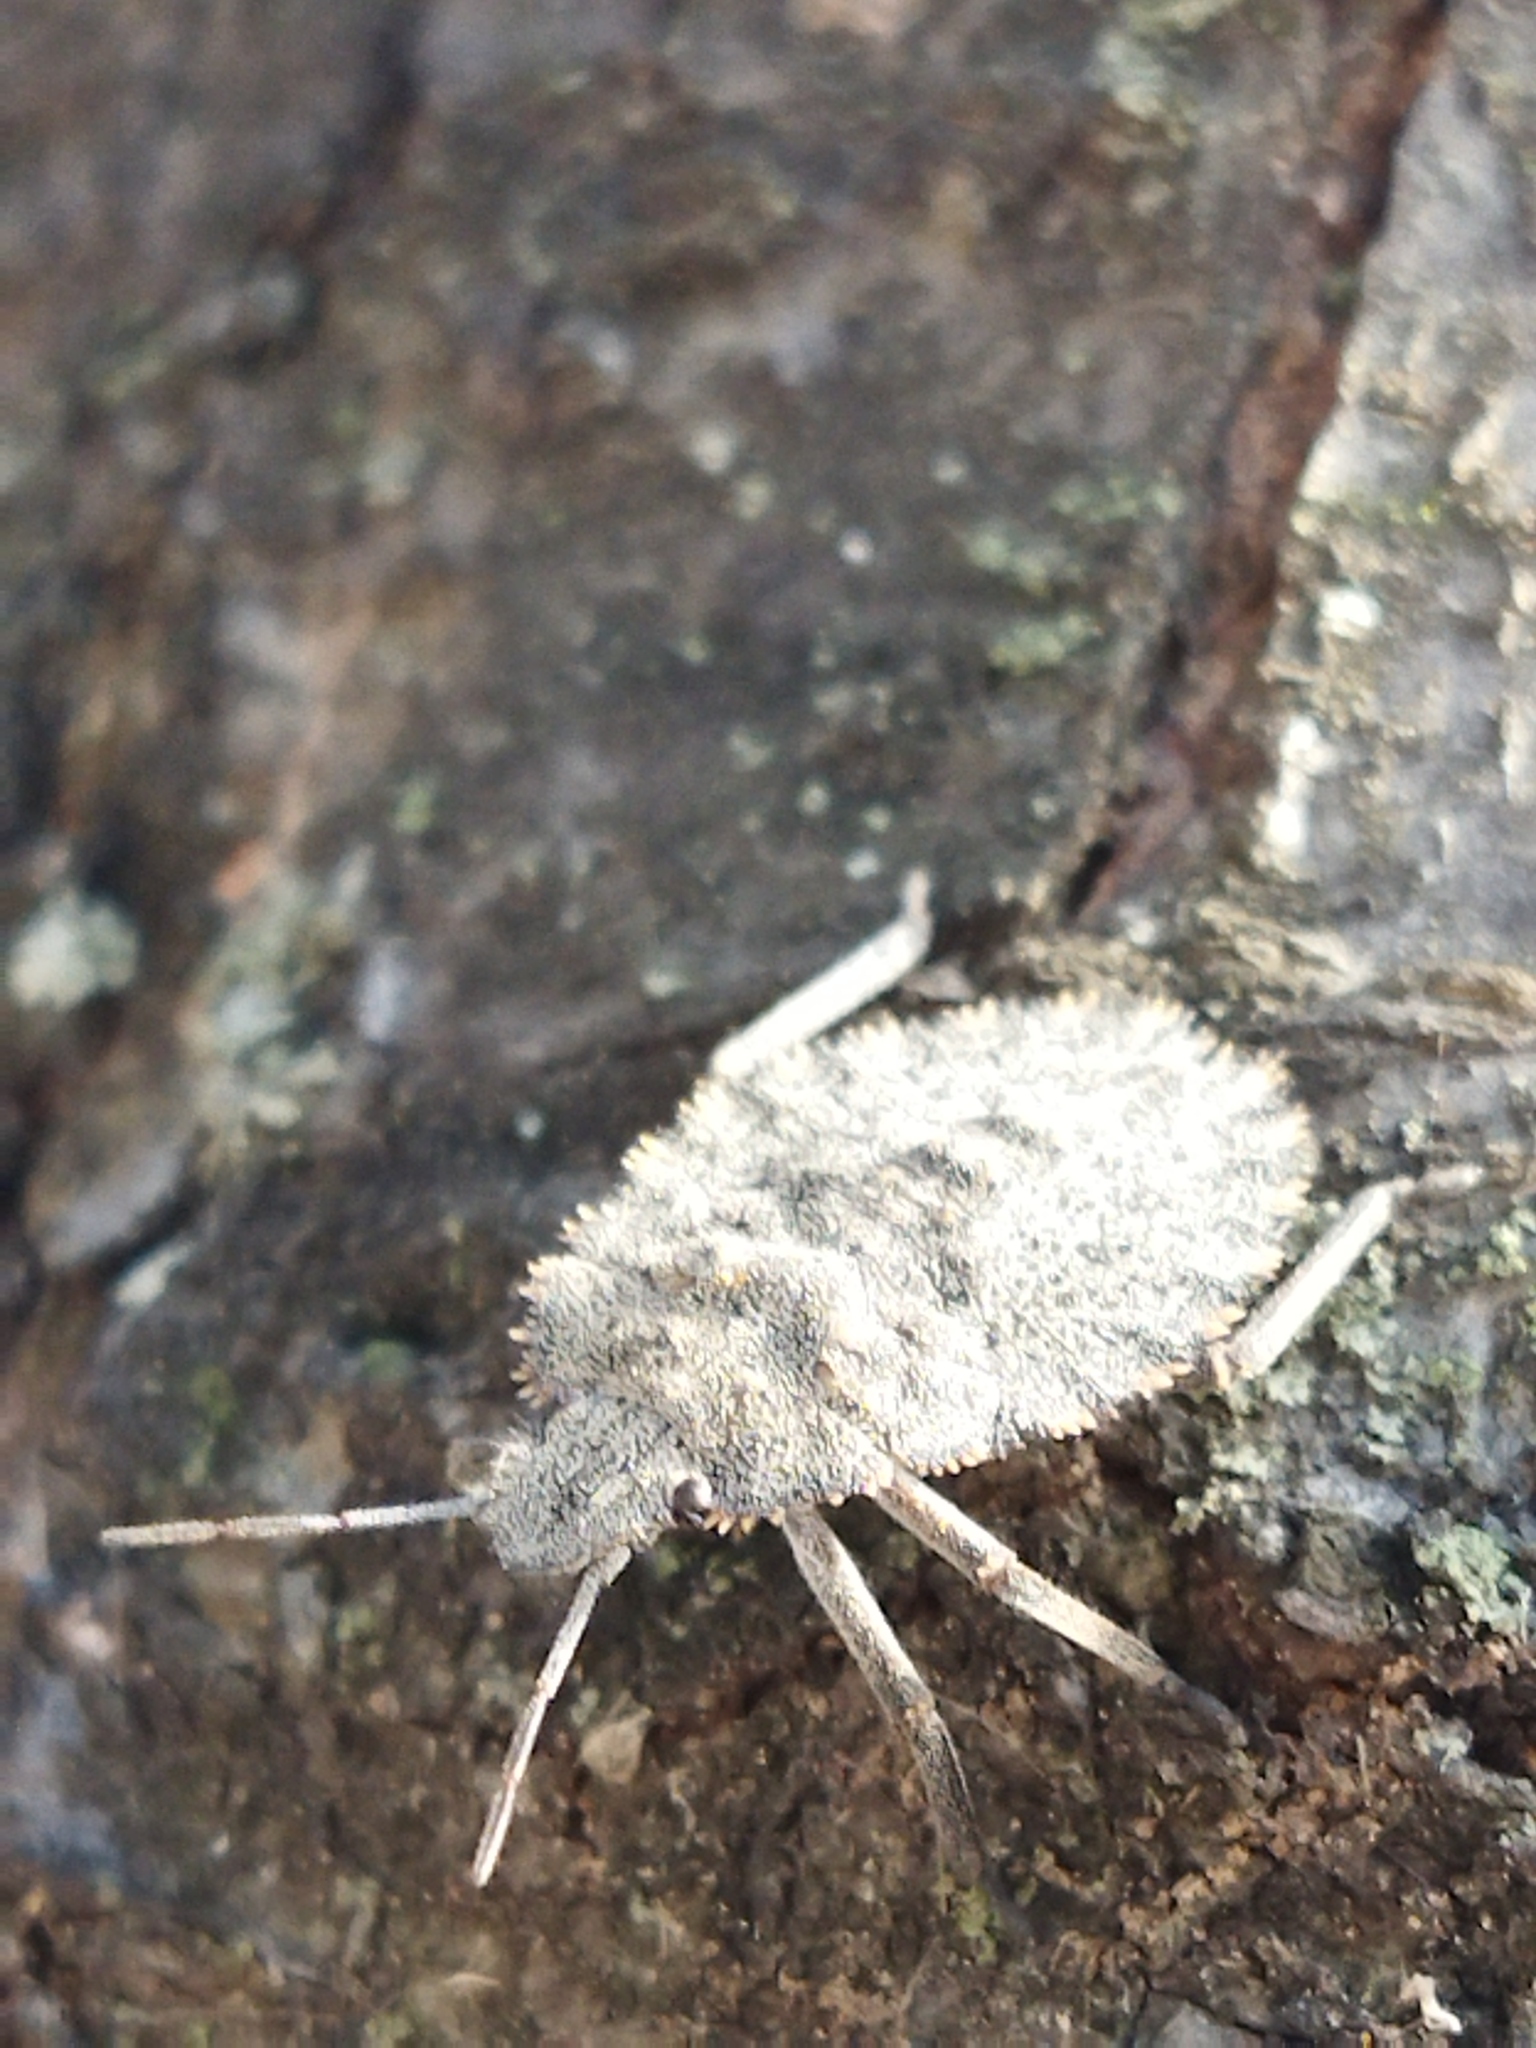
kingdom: Animalia
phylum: Arthropoda
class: Insecta
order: Hemiptera
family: Pentatomidae
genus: Mustha
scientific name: Mustha spinosula
